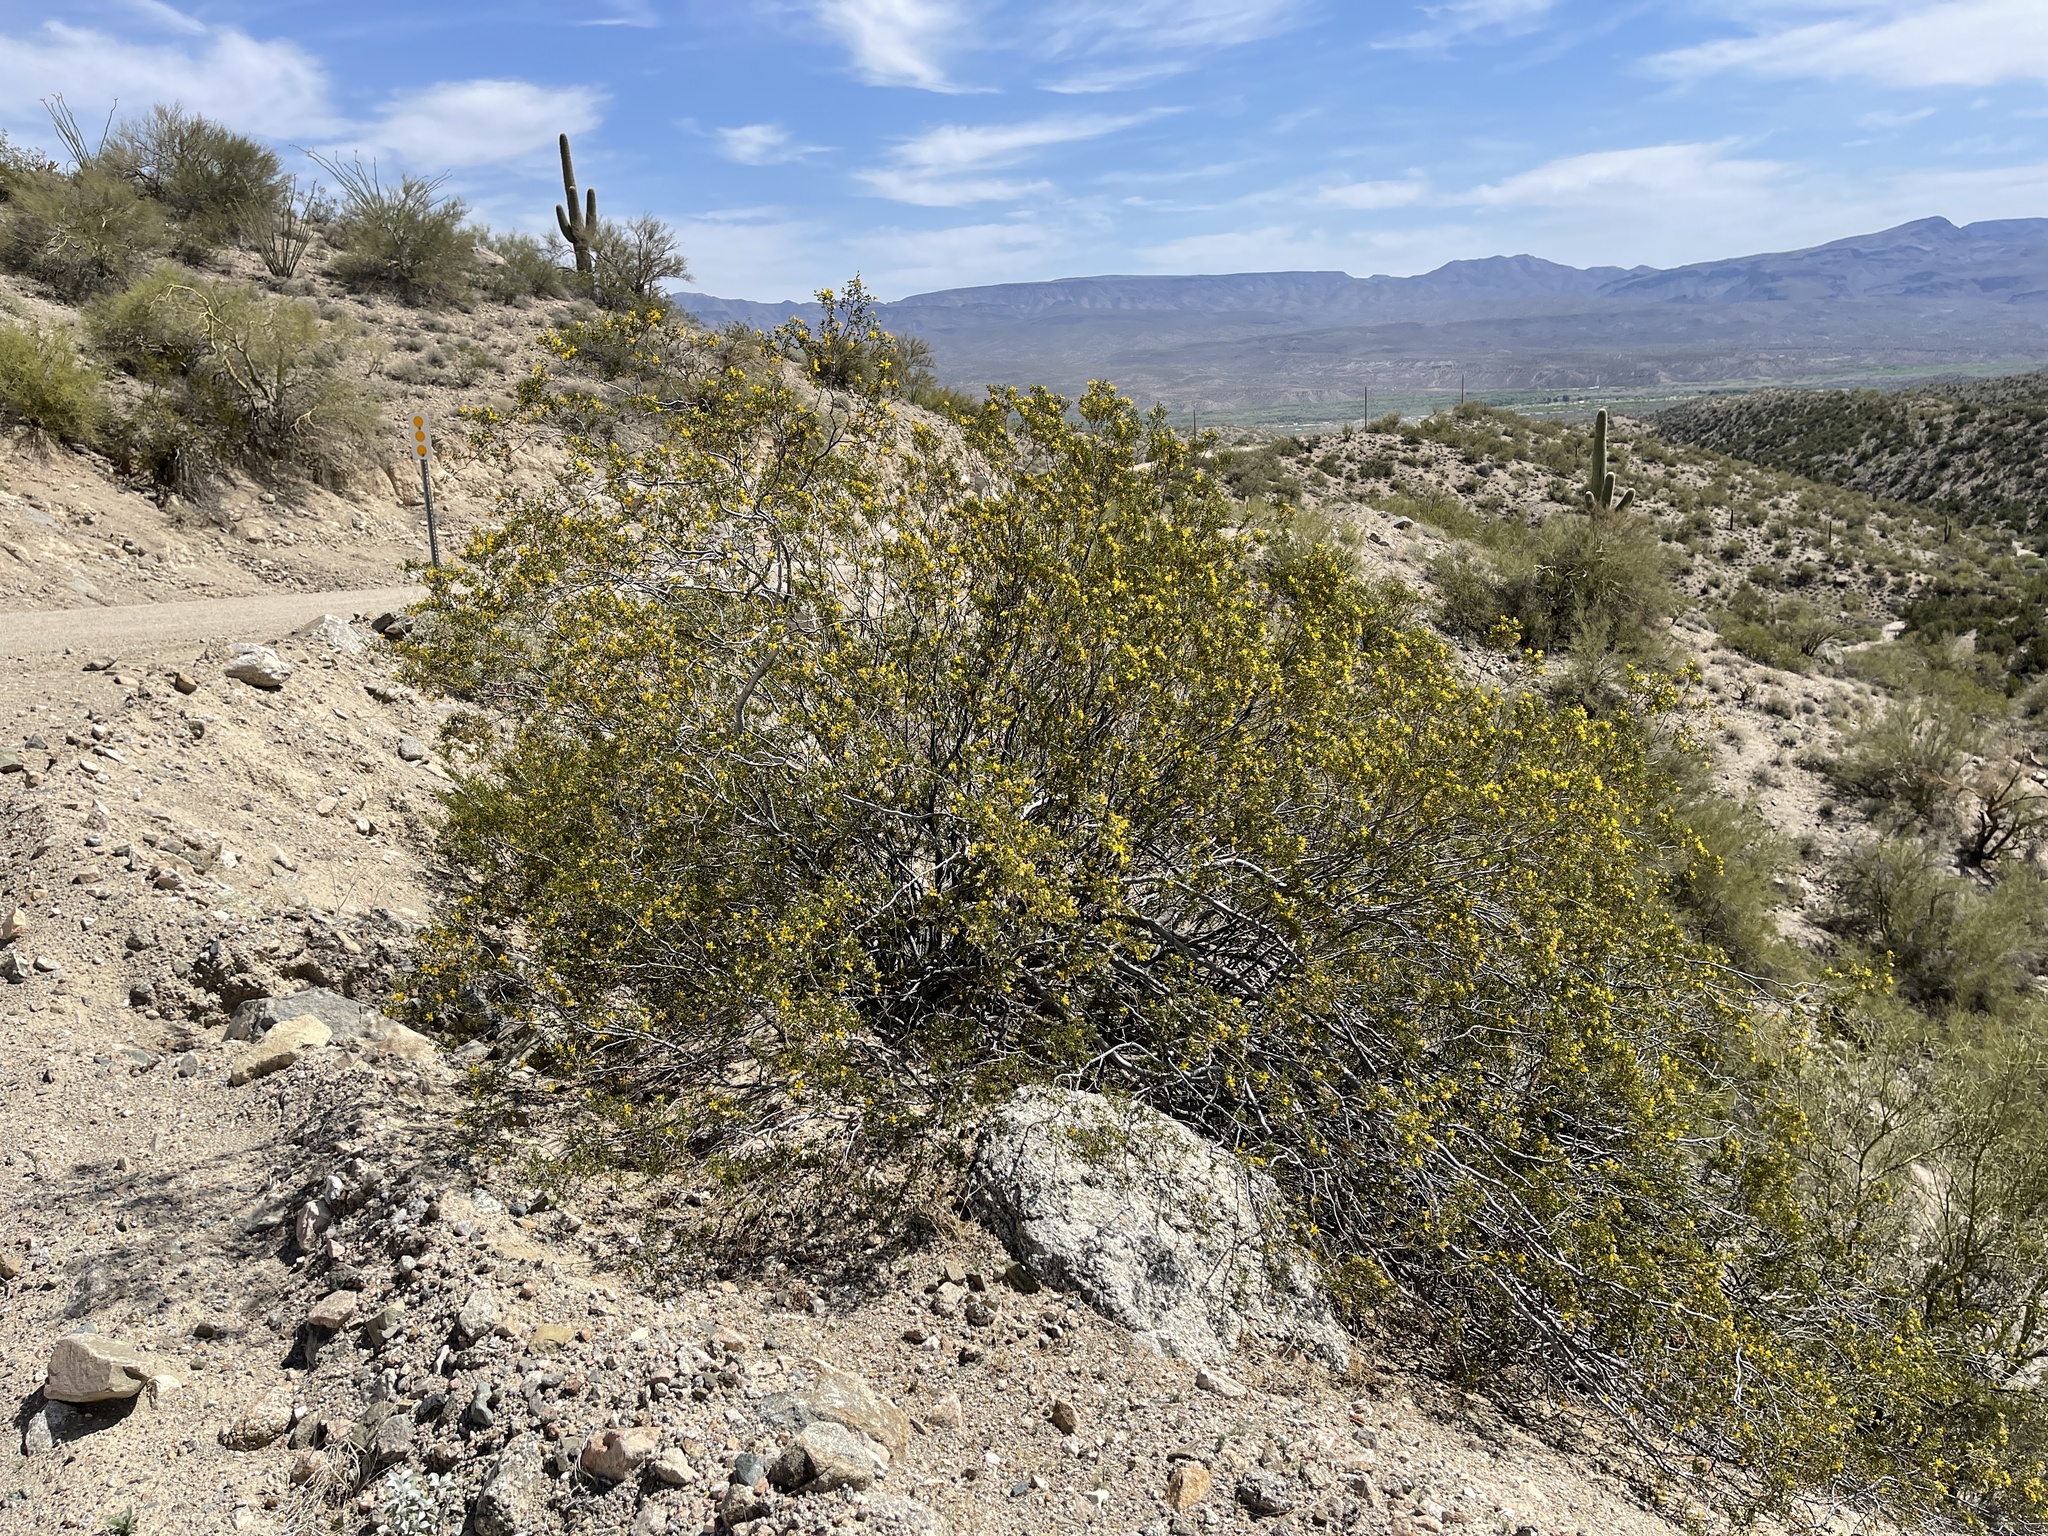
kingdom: Plantae
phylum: Tracheophyta
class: Magnoliopsida
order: Zygophyllales
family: Zygophyllaceae
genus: Larrea
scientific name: Larrea tridentata
